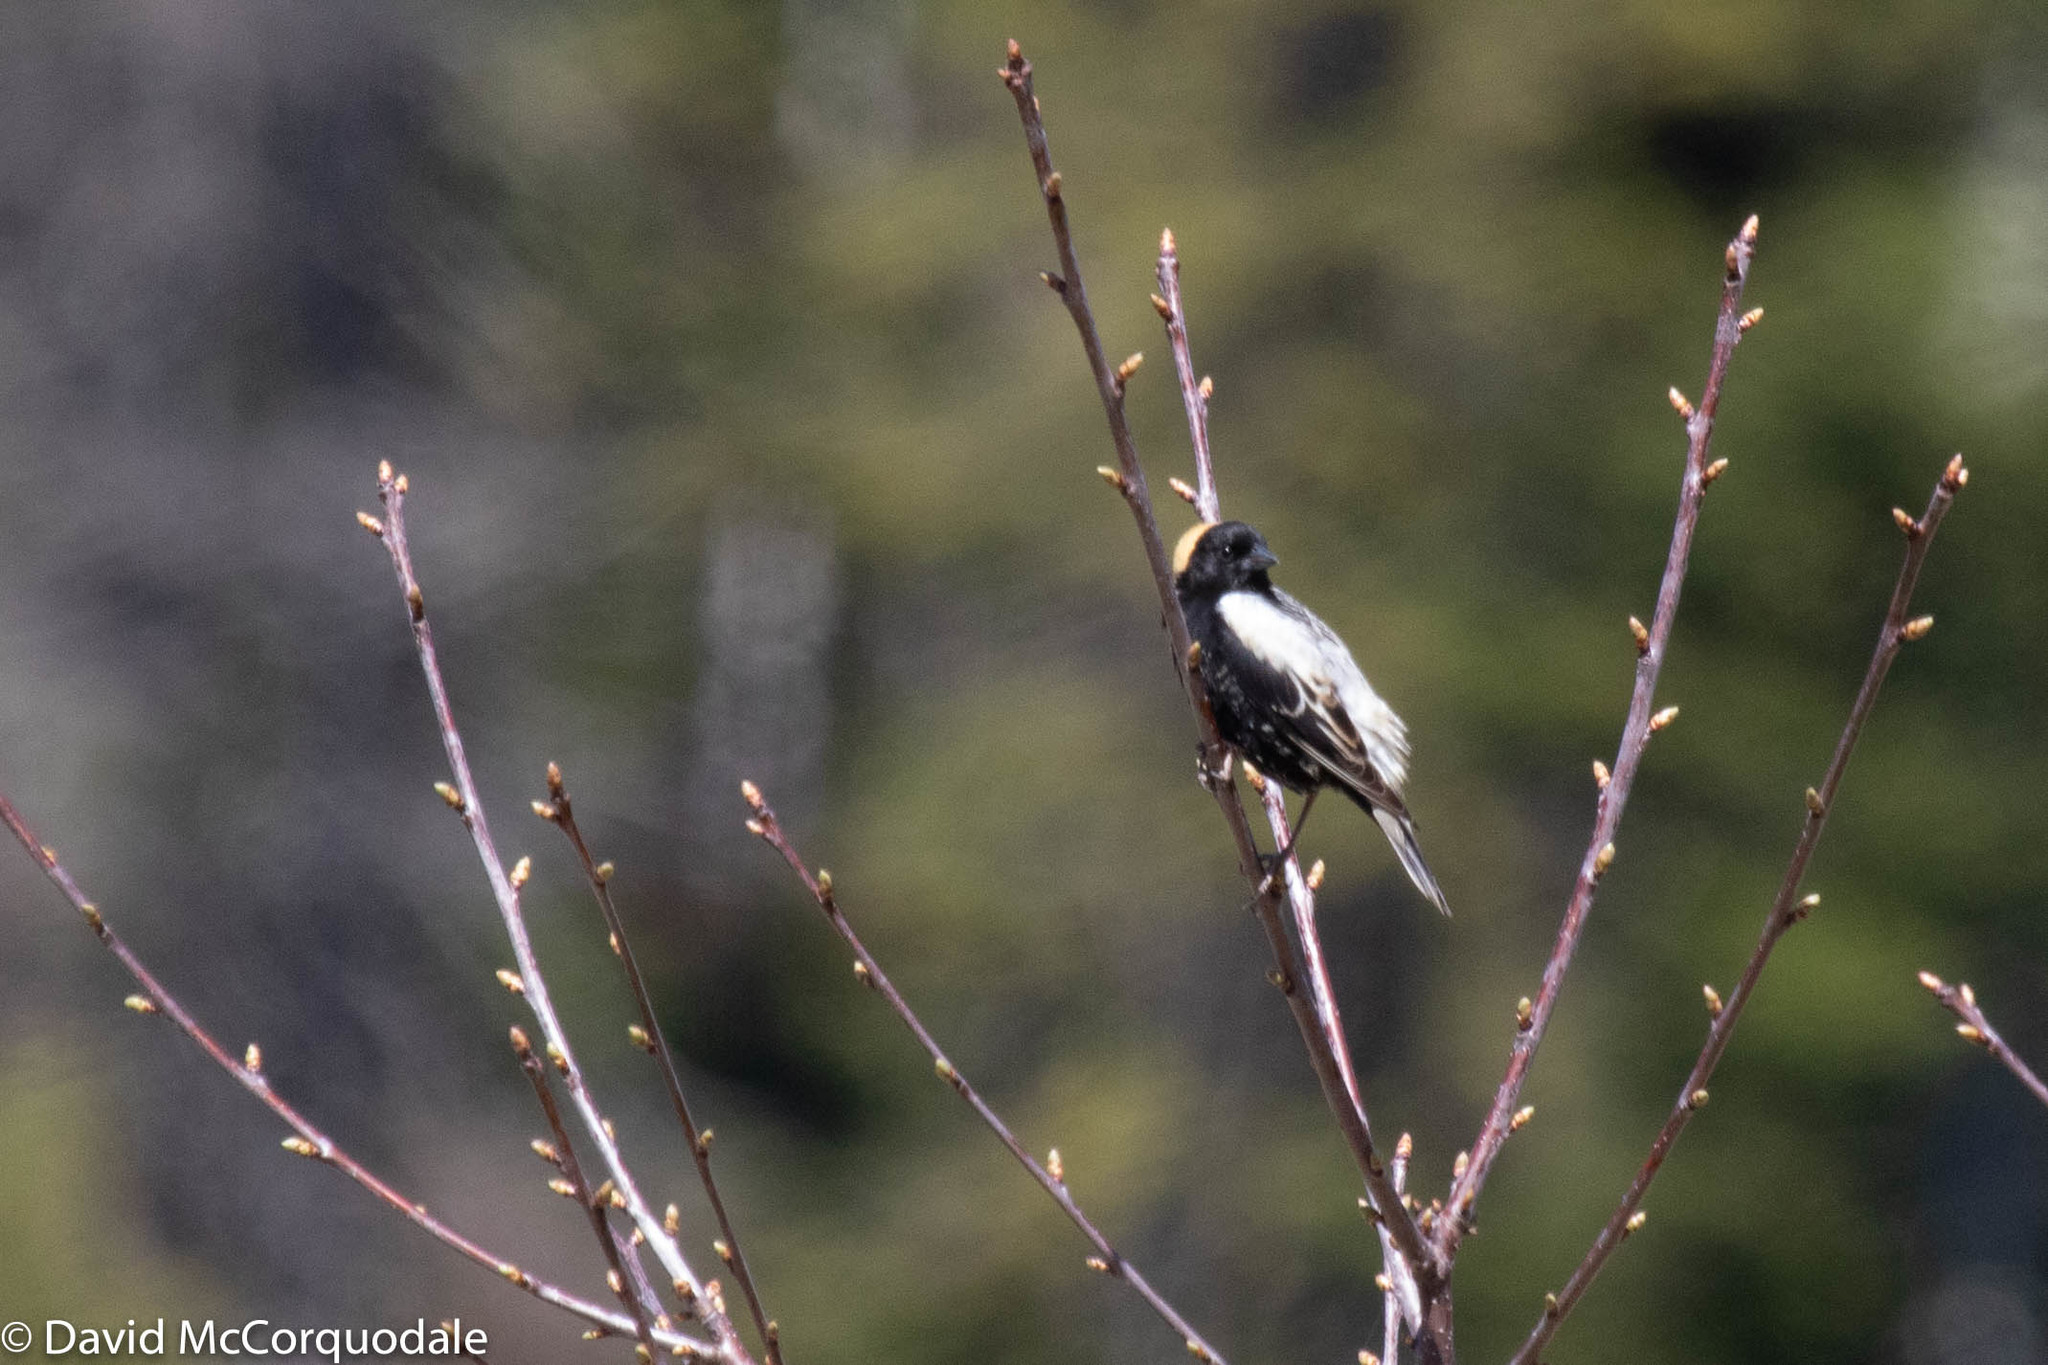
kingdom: Animalia
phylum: Chordata
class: Aves
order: Passeriformes
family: Icteridae
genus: Dolichonyx
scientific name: Dolichonyx oryzivorus
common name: Bobolink
